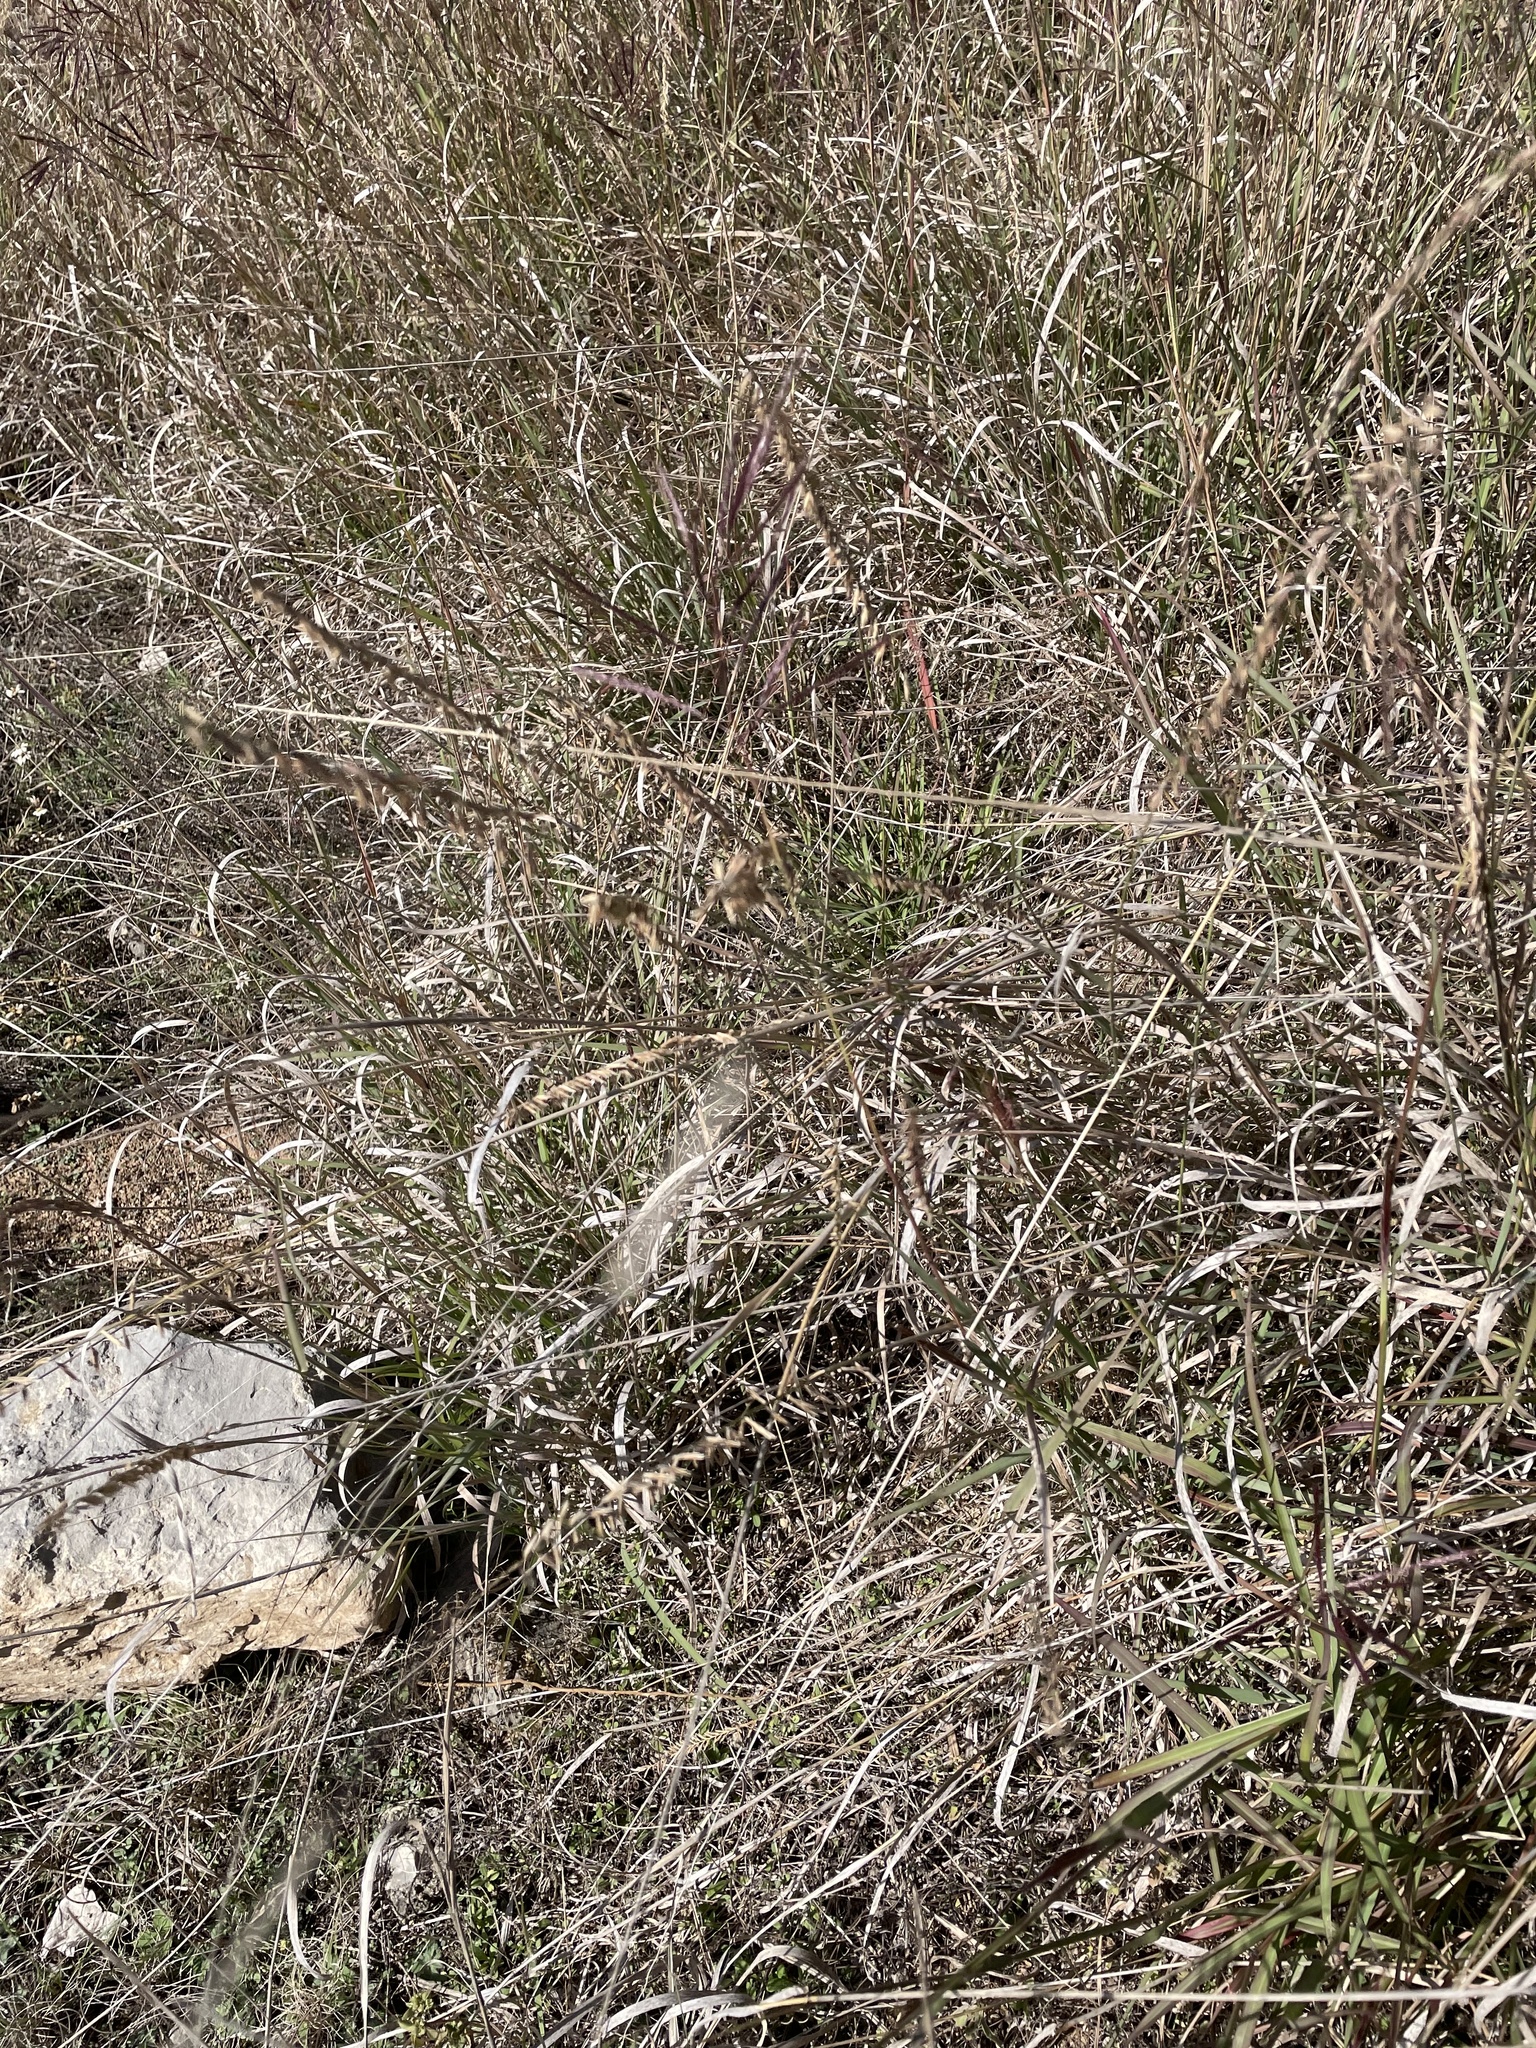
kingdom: Plantae
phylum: Tracheophyta
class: Liliopsida
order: Poales
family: Poaceae
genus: Bouteloua
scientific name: Bouteloua curtipendula
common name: Side-oats grama
